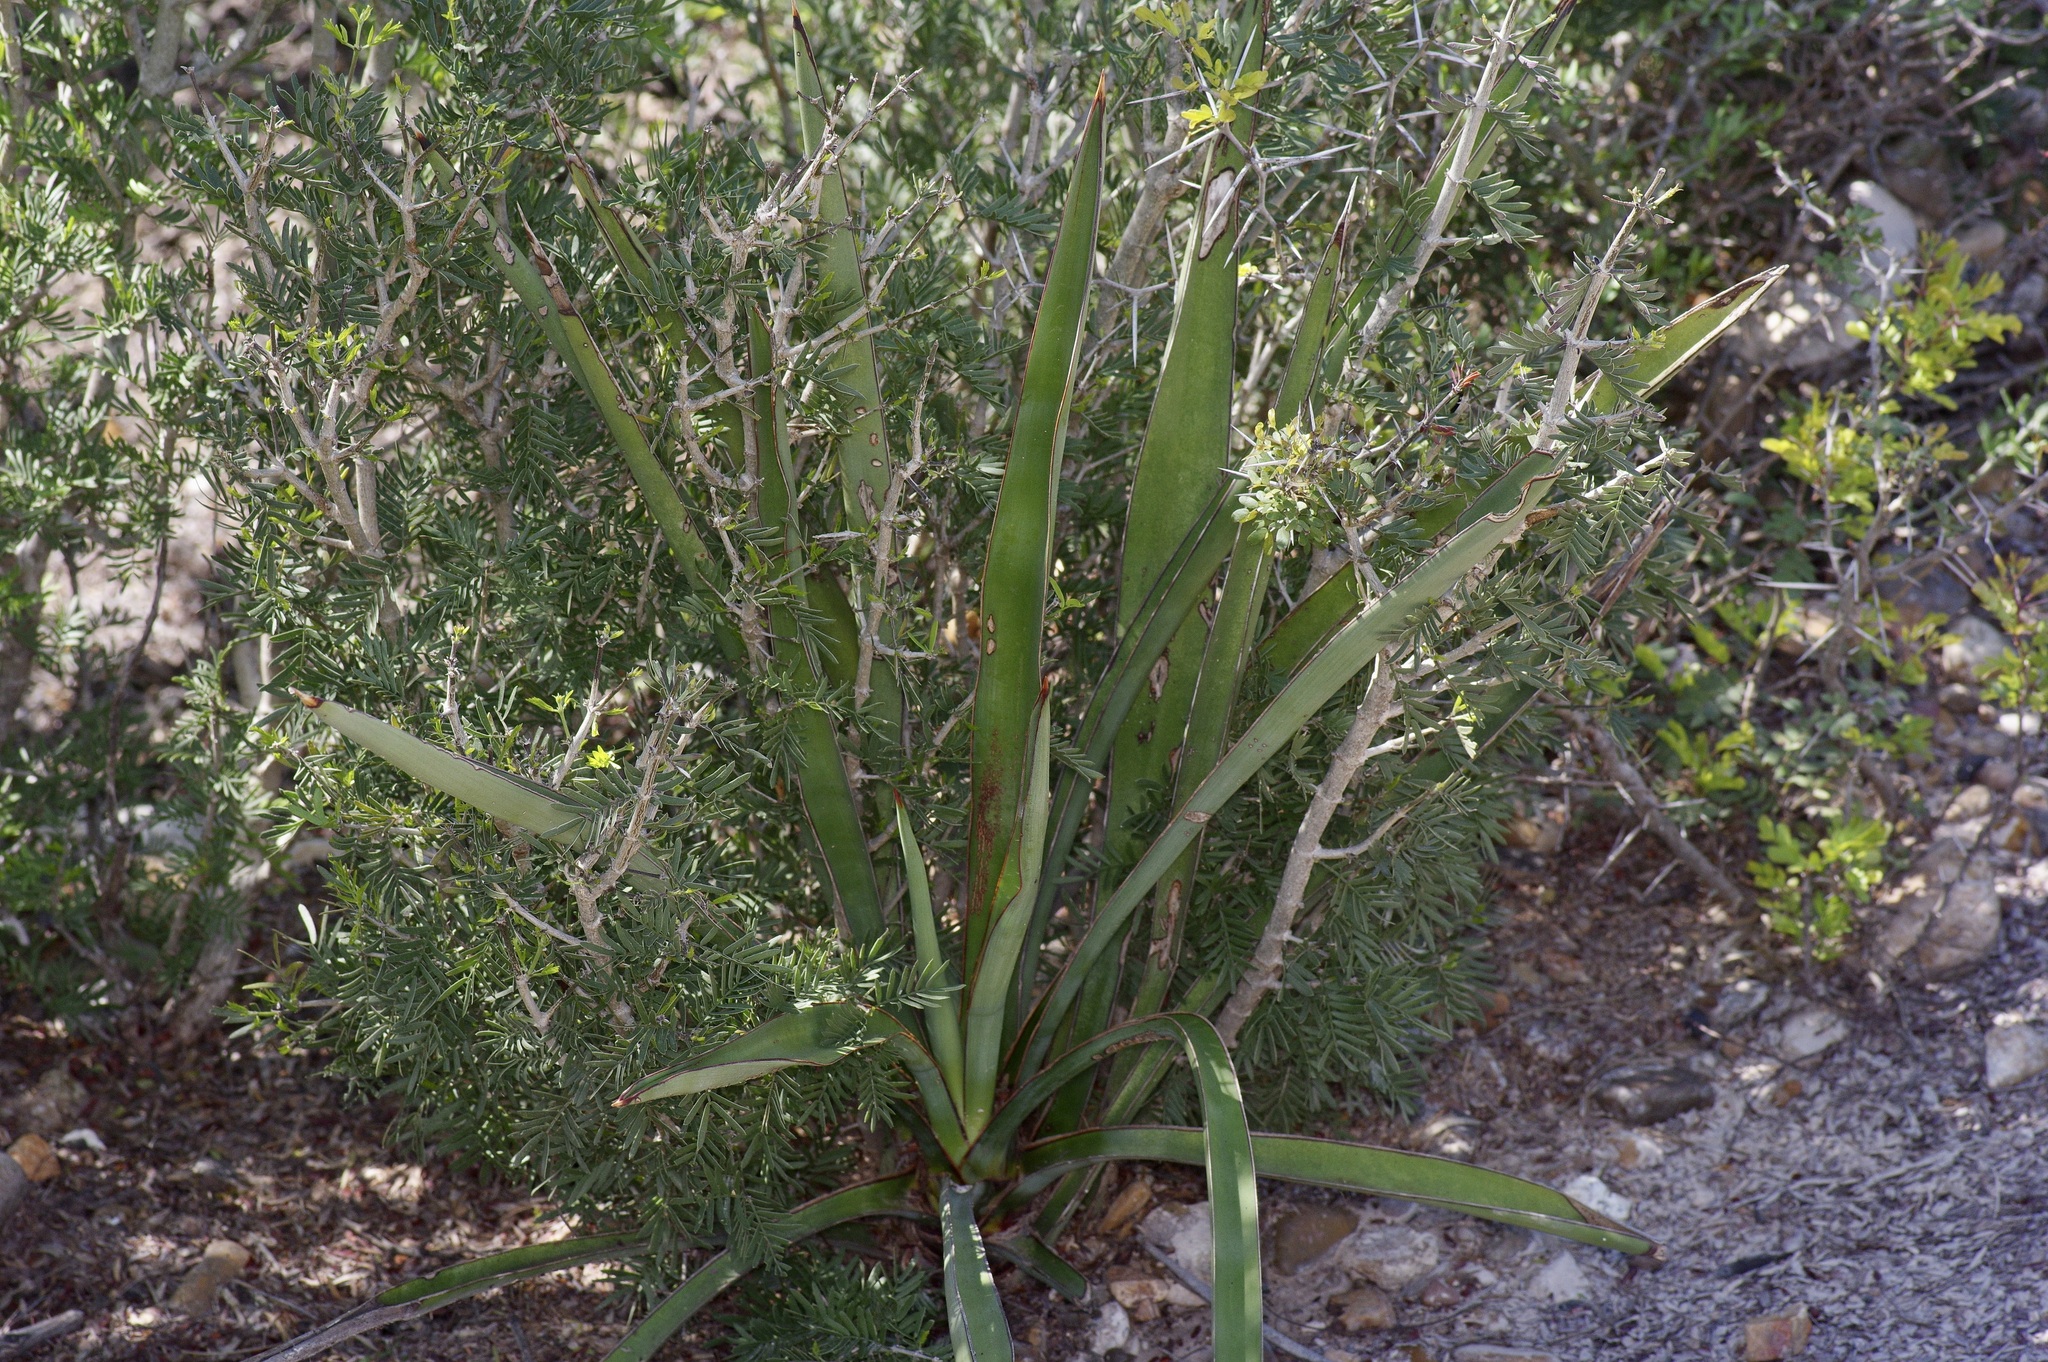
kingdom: Plantae
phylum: Tracheophyta
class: Liliopsida
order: Asparagales
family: Asparagaceae
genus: Yucca
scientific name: Yucca treculiana
